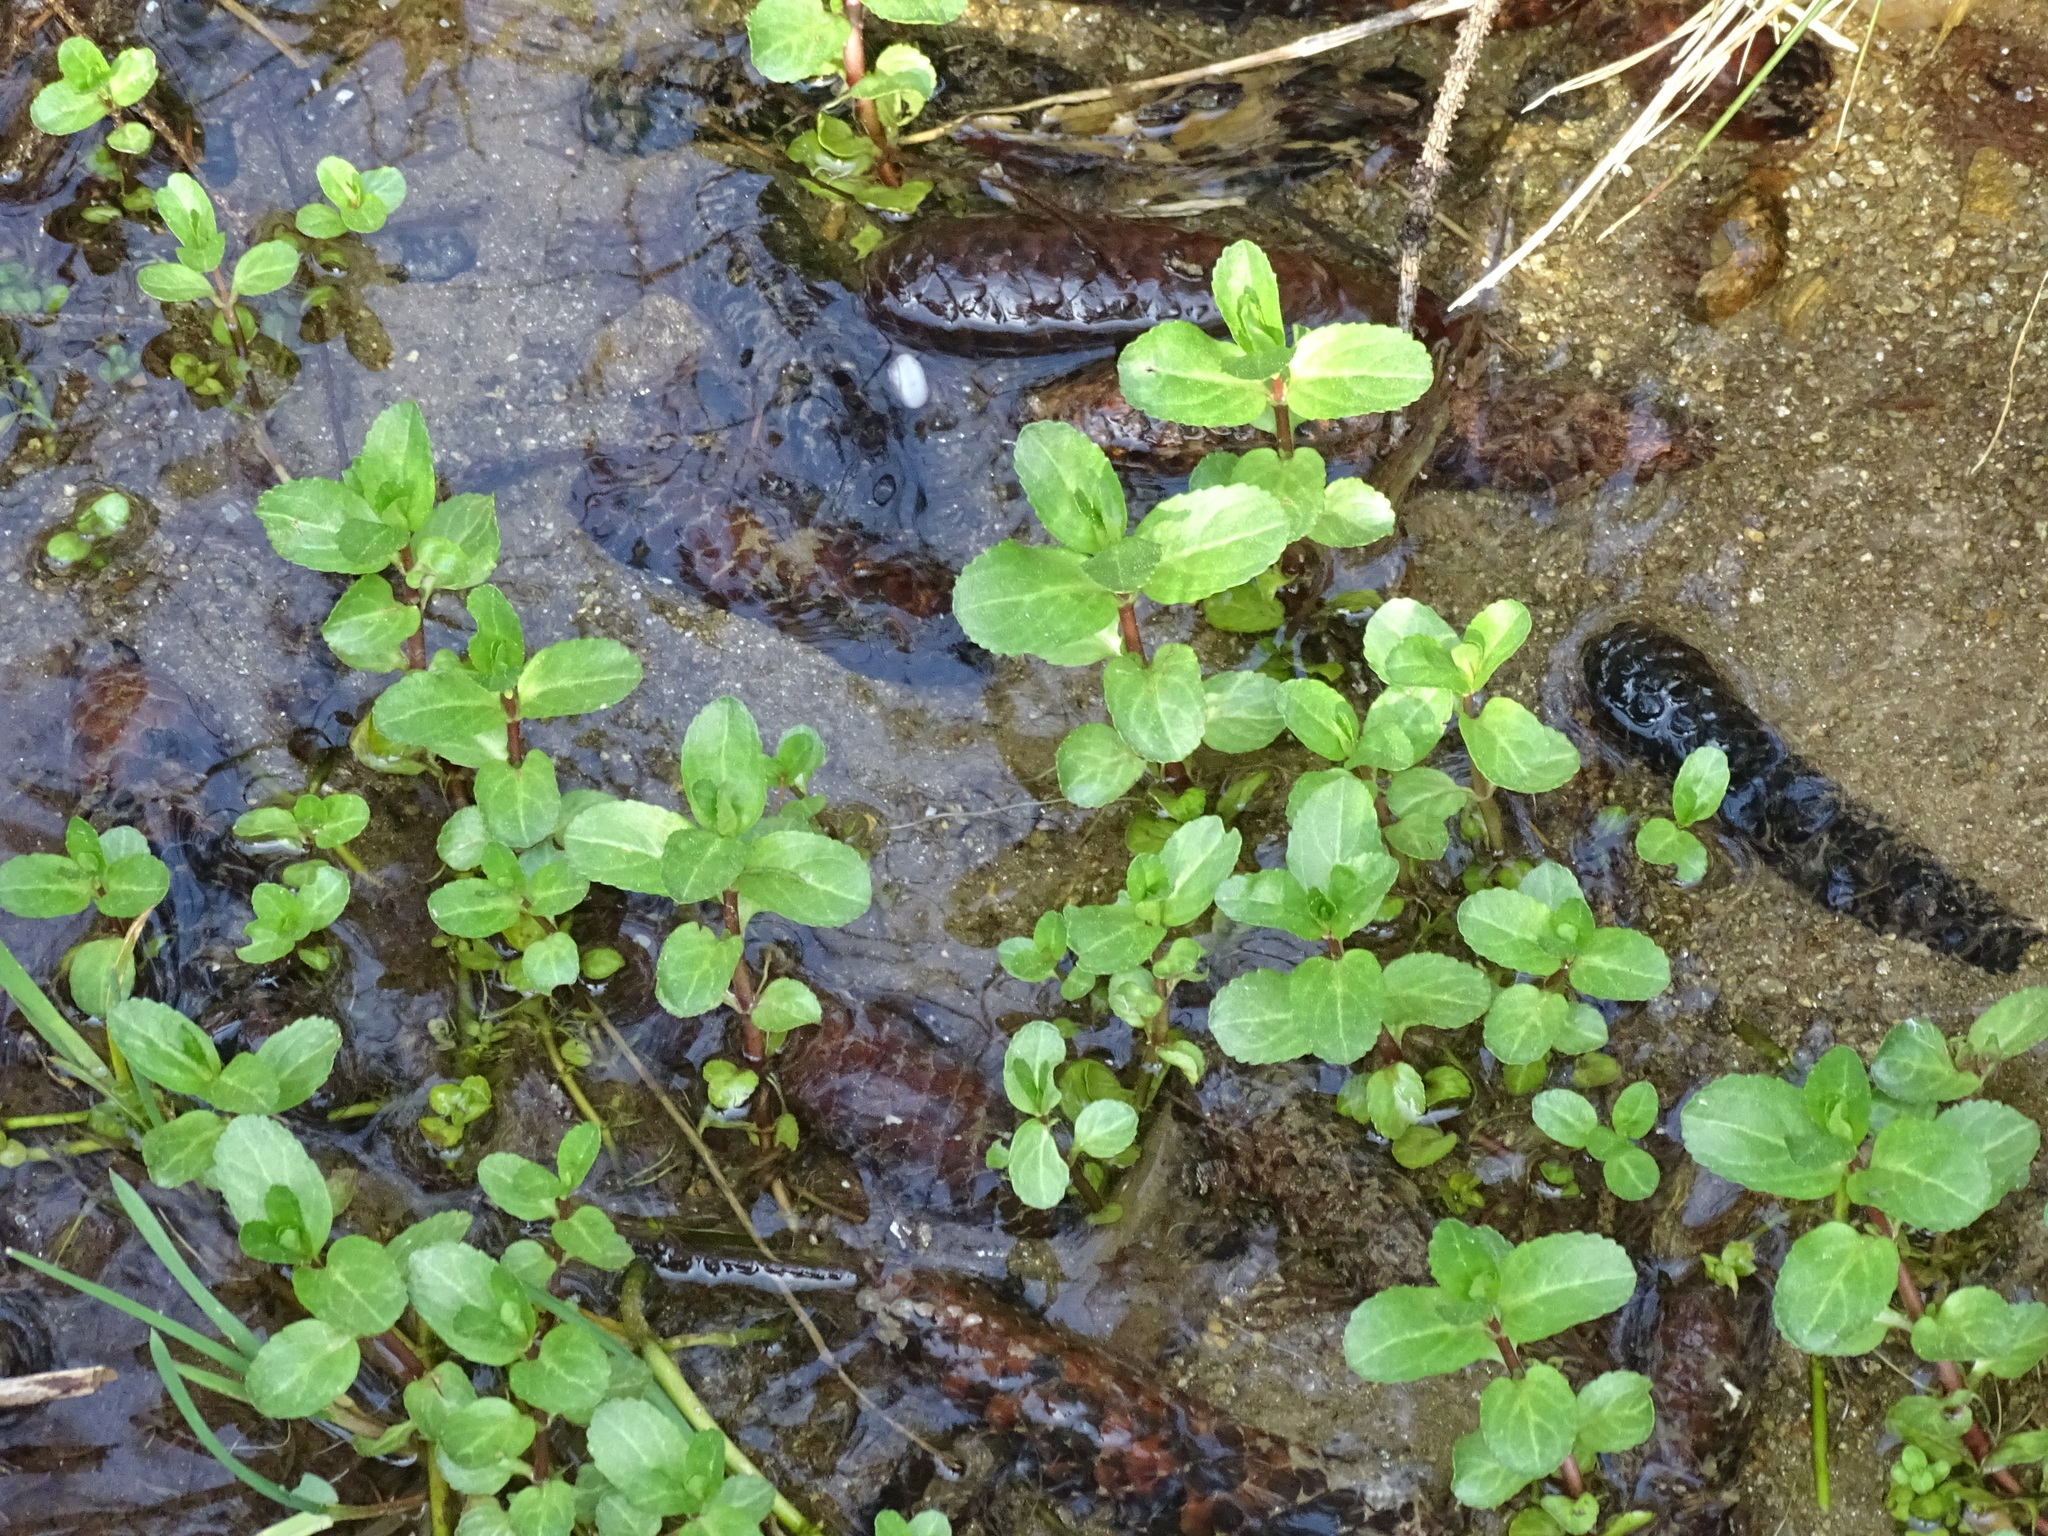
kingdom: Plantae
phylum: Tracheophyta
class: Magnoliopsida
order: Lamiales
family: Plantaginaceae
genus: Veronica
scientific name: Veronica beccabunga
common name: Brooklime
